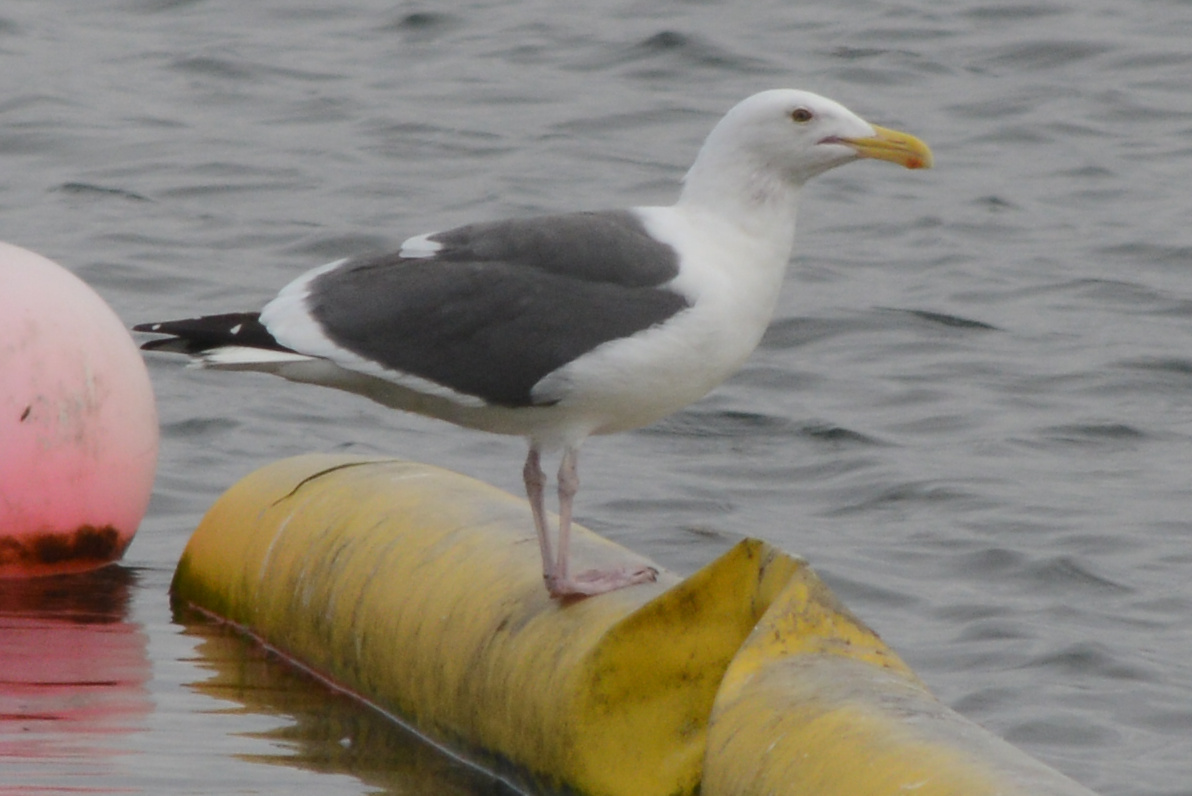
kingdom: Animalia
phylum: Chordata
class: Aves
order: Charadriiformes
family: Laridae
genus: Larus
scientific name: Larus occidentalis
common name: Western gull
